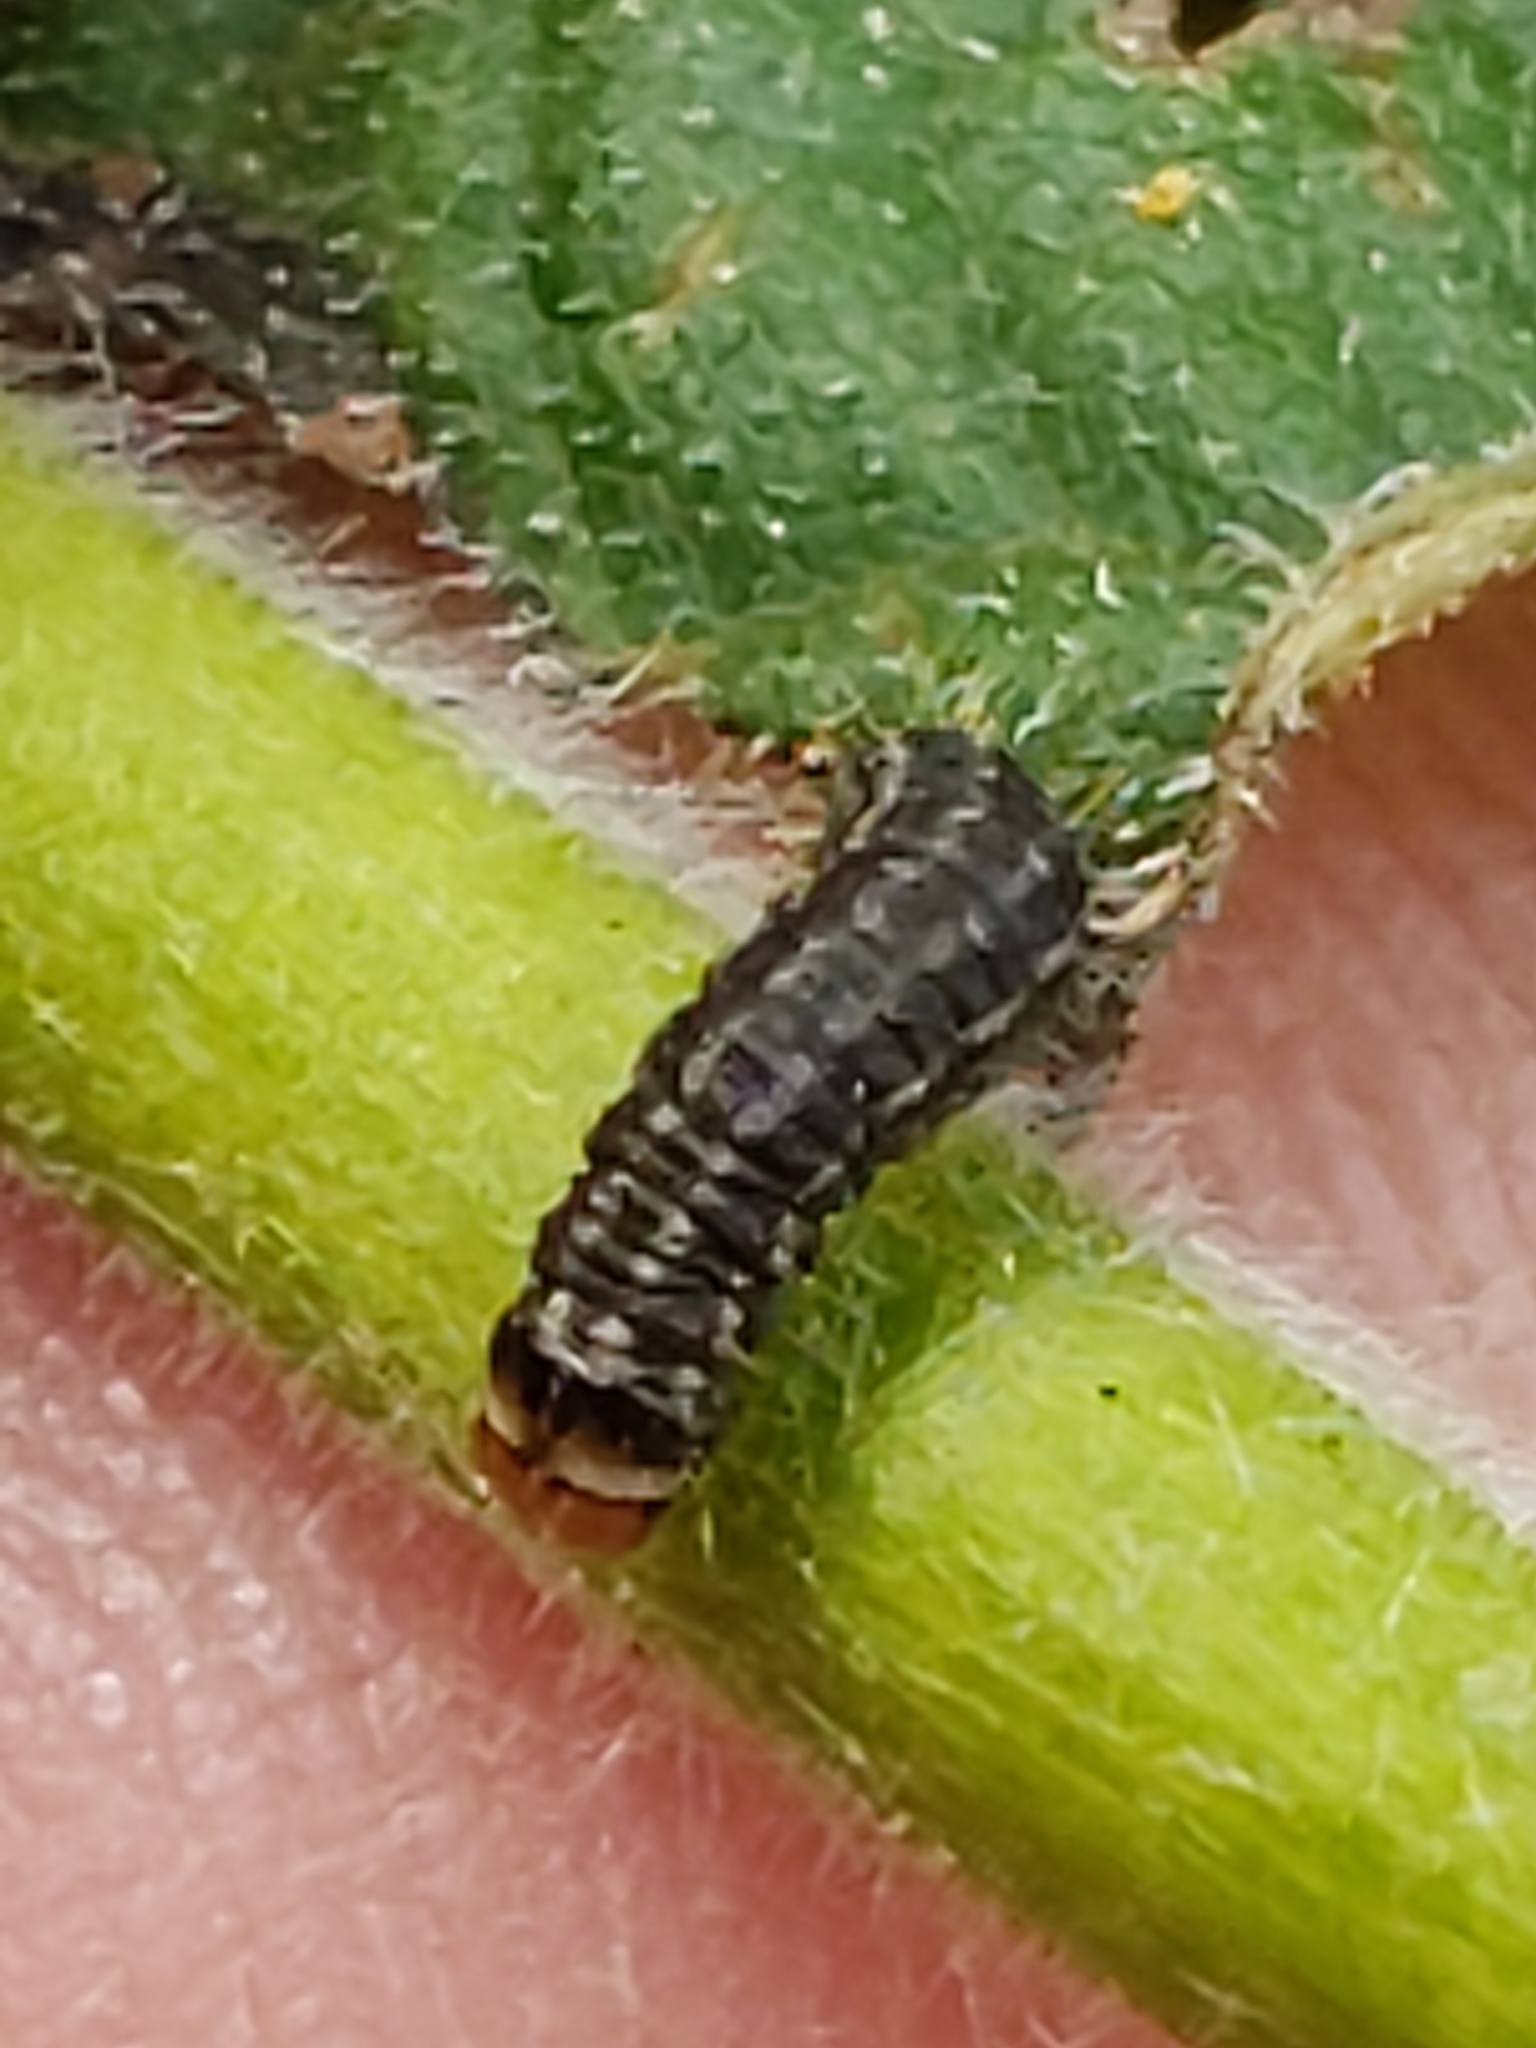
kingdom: Animalia
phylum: Arthropoda
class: Insecta
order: Lepidoptera
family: Pyralidae
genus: Homoeosoma
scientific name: Homoeosoma electella
